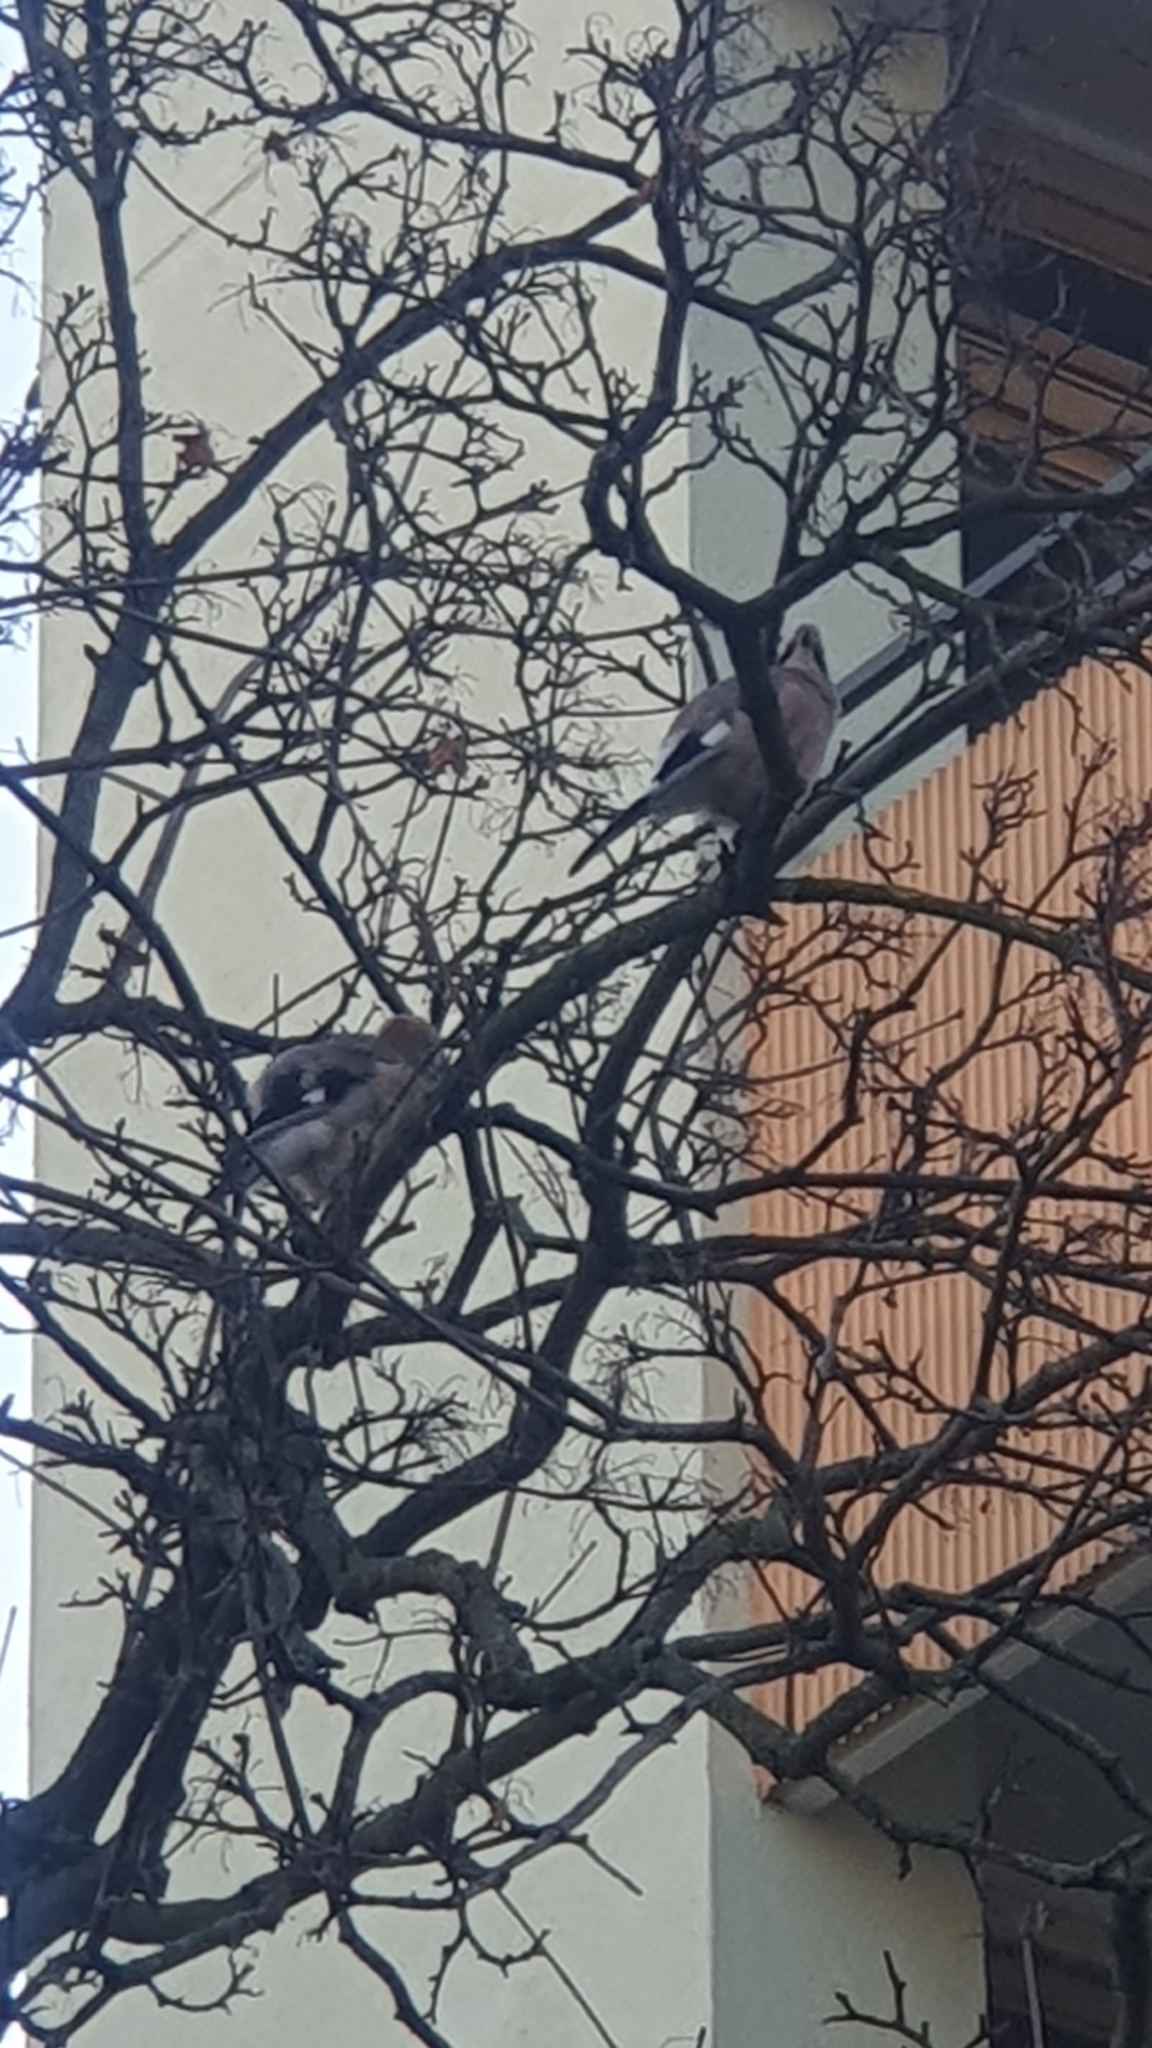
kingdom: Animalia
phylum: Chordata
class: Aves
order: Passeriformes
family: Corvidae
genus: Garrulus
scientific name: Garrulus glandarius
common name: Eurasian jay
